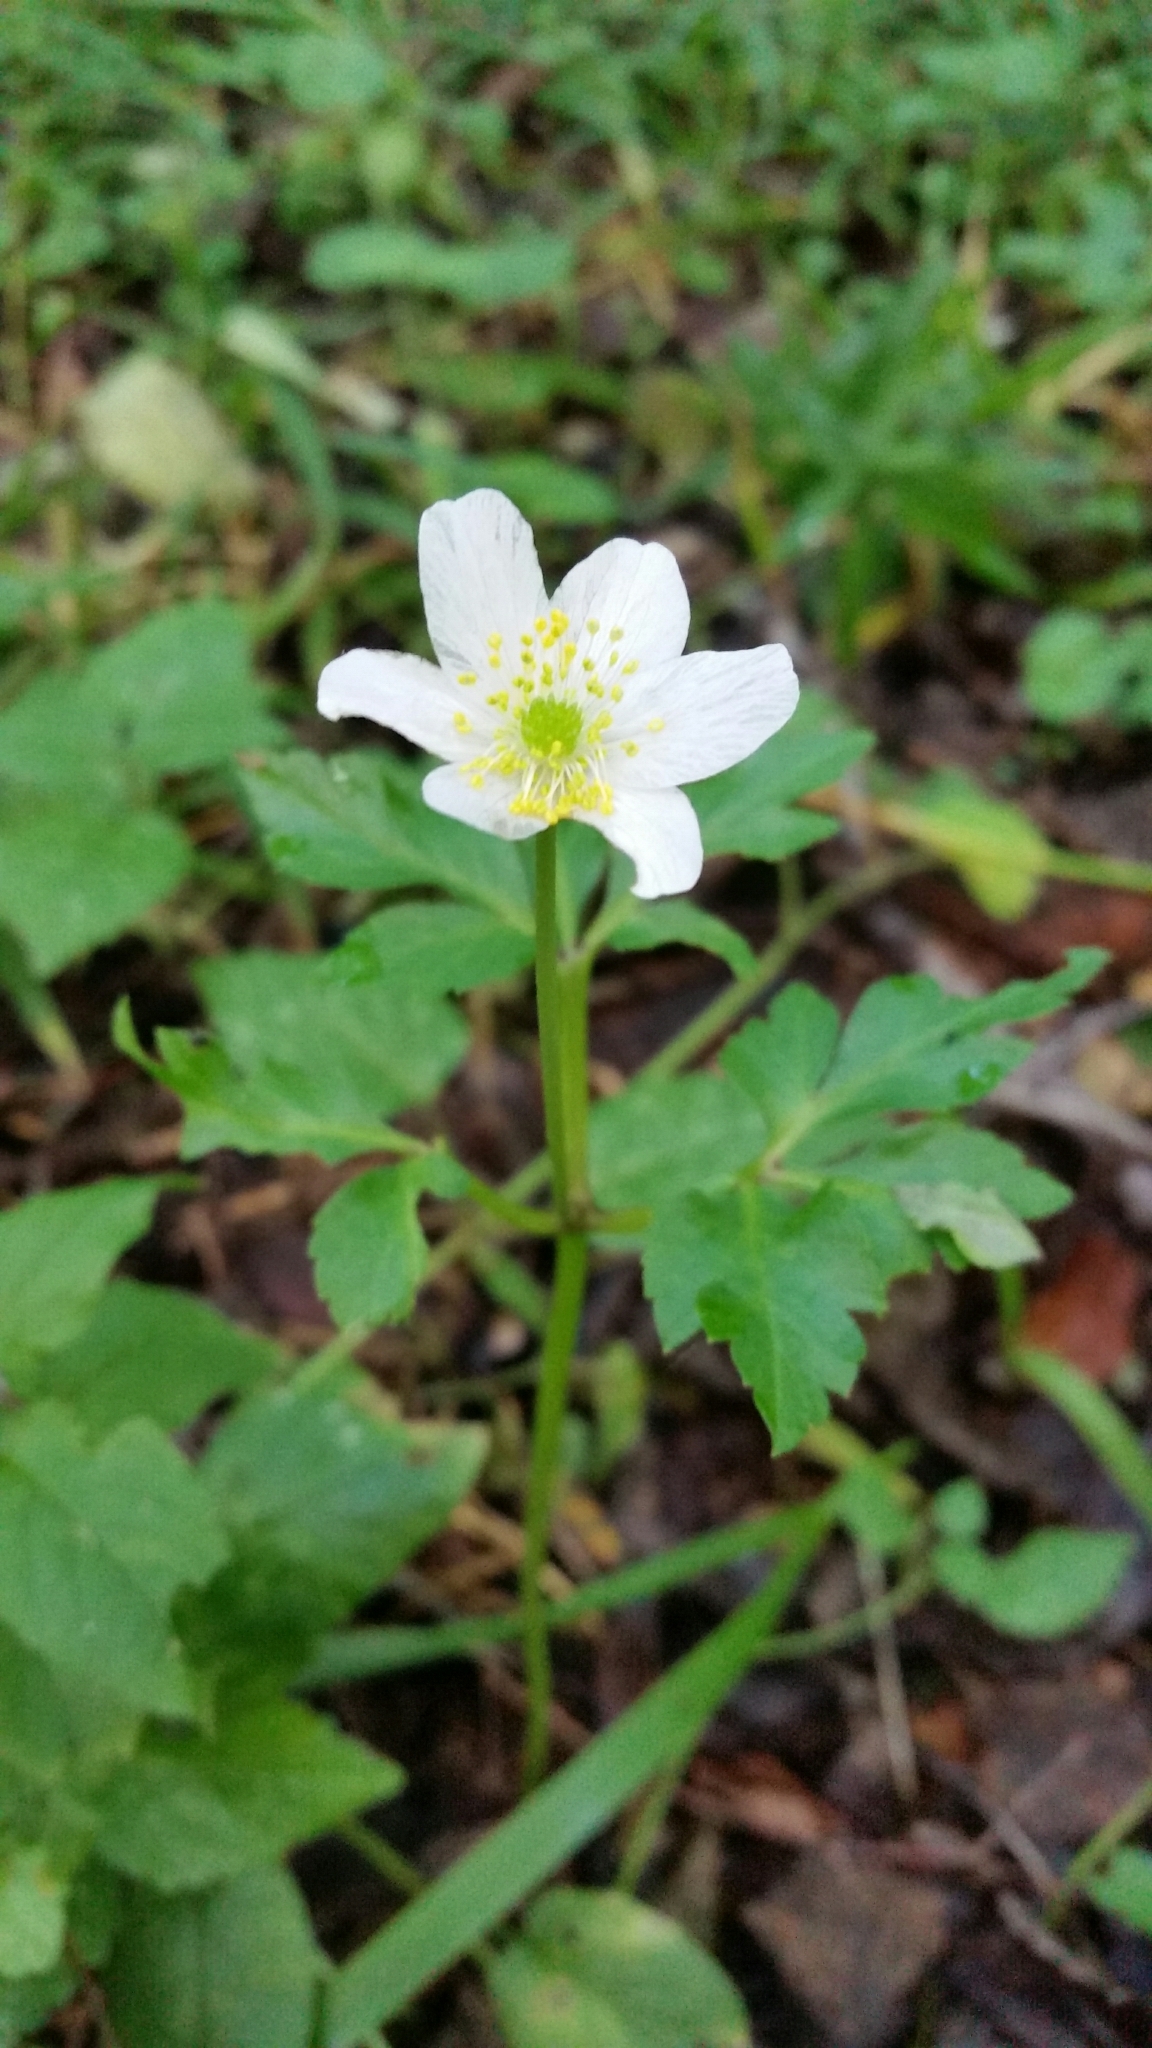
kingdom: Plantae
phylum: Tracheophyta
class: Magnoliopsida
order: Ranunculales
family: Ranunculaceae
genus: Anemone
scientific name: Anemone nemorosa
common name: Wood anemone
